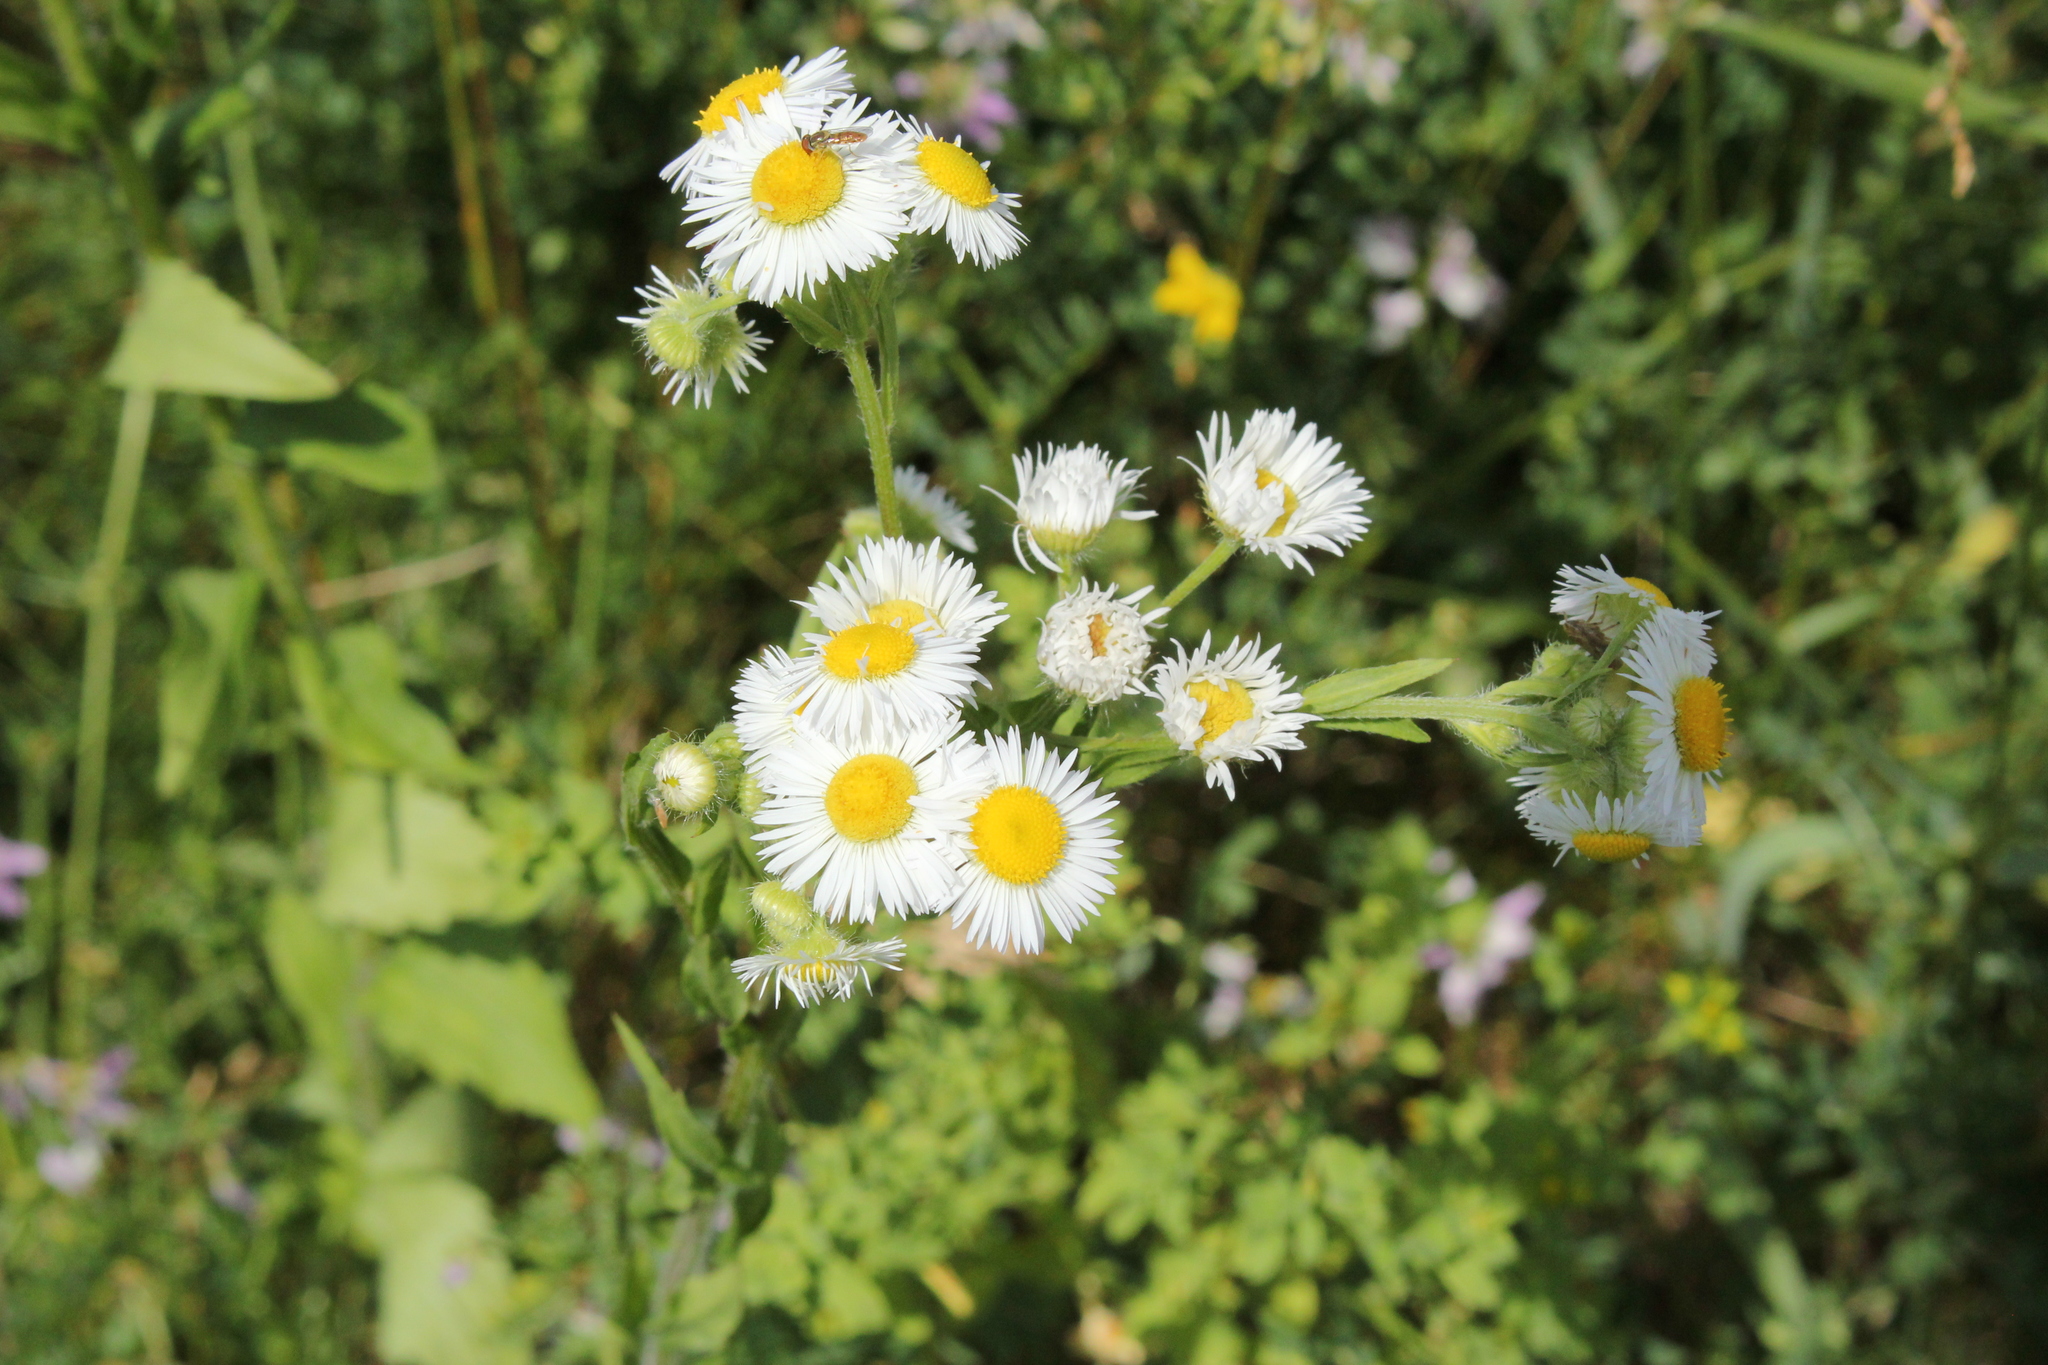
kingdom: Plantae
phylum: Tracheophyta
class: Magnoliopsida
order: Asterales
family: Asteraceae
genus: Erigeron
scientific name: Erigeron annuus
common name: Tall fleabane
